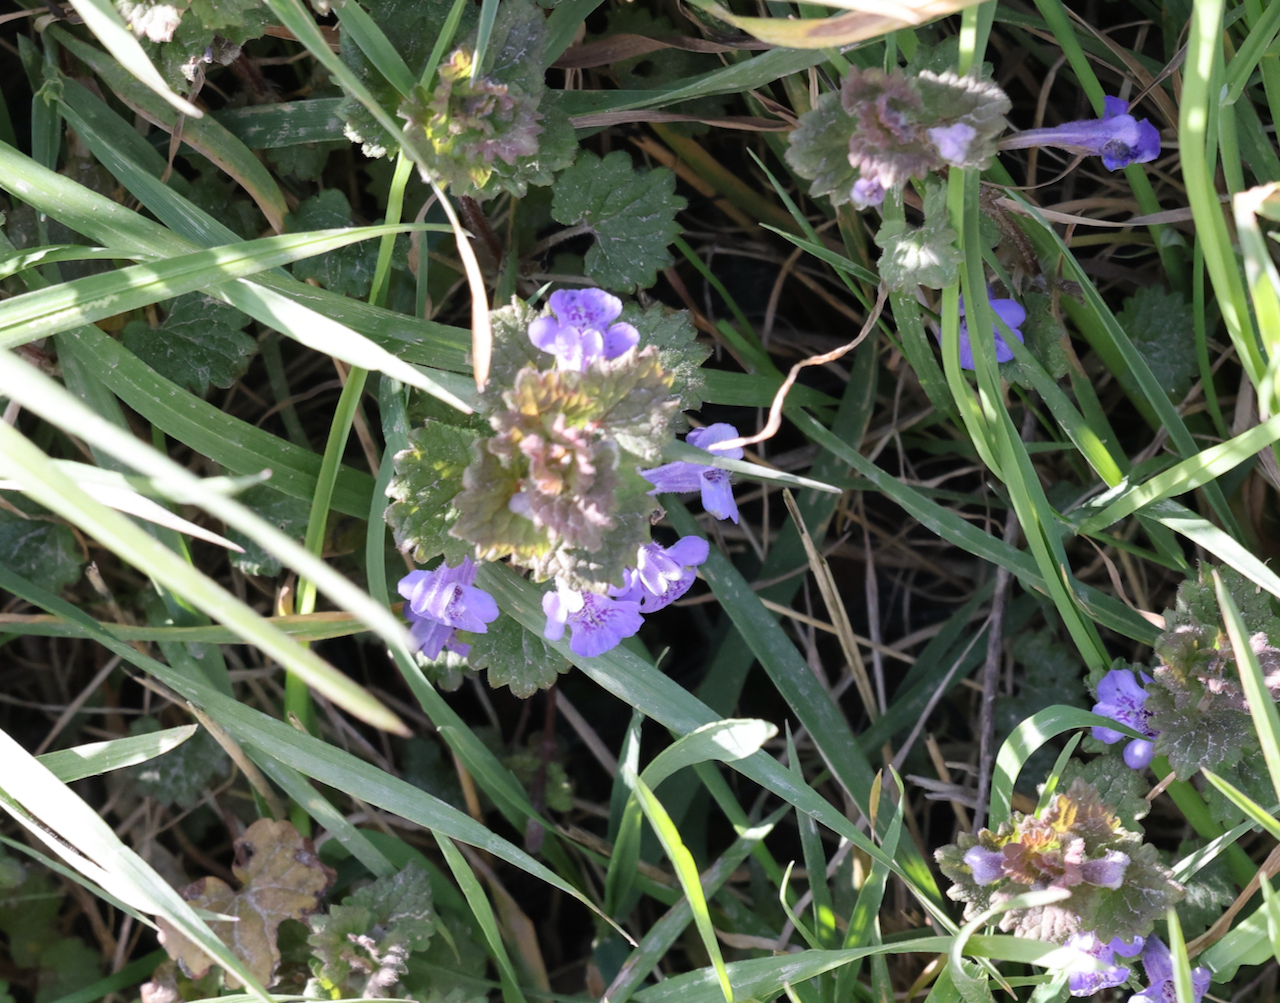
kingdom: Plantae
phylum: Tracheophyta
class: Magnoliopsida
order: Lamiales
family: Lamiaceae
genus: Glechoma
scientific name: Glechoma hederacea
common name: Ground ivy
